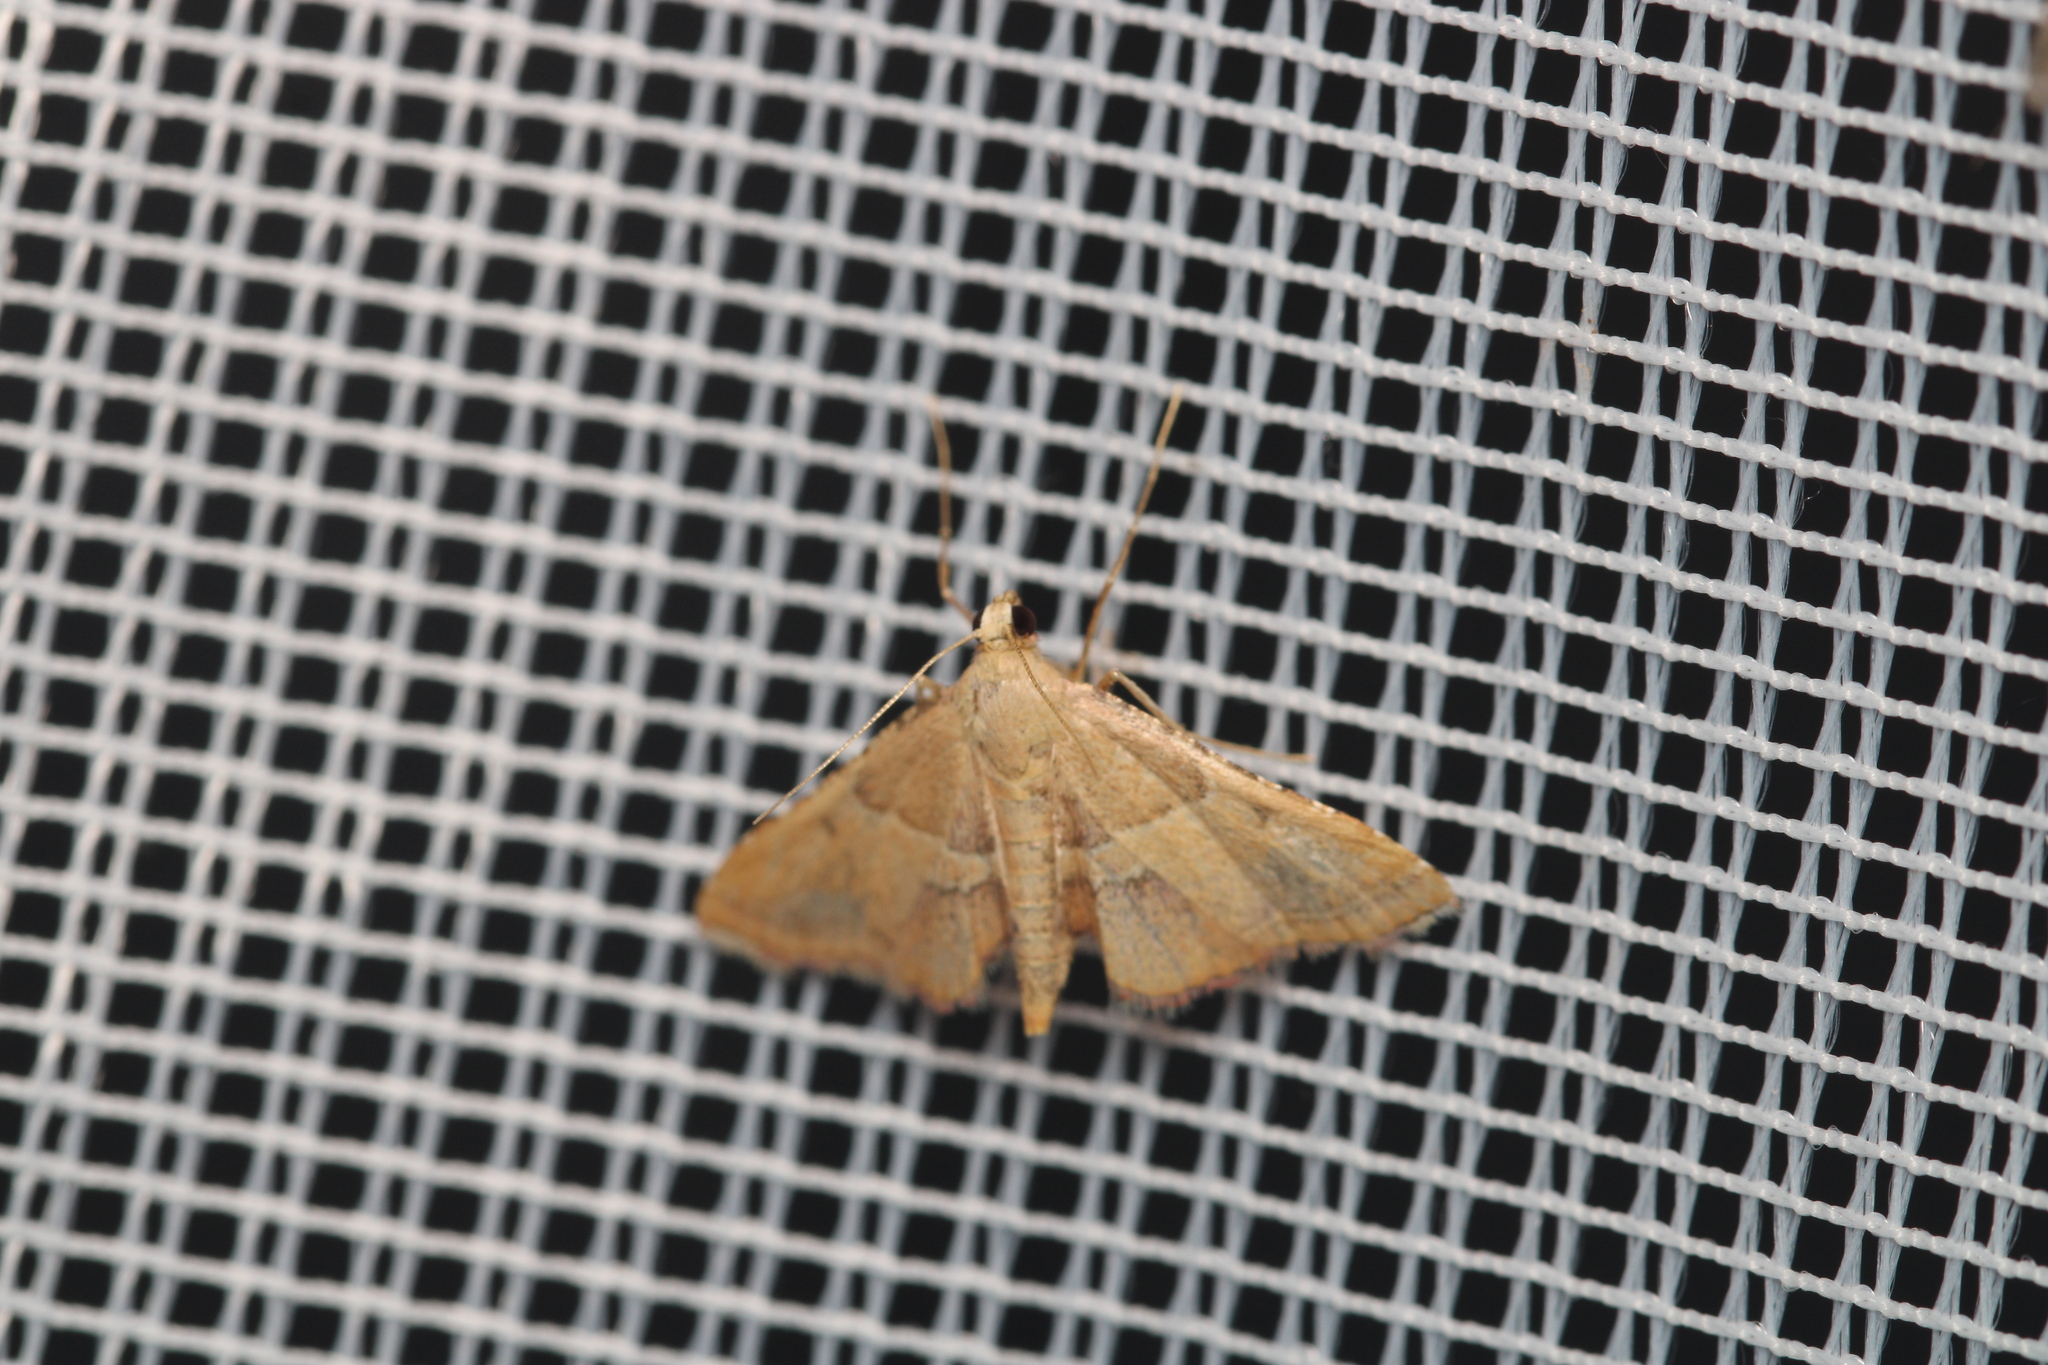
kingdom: Animalia
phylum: Arthropoda
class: Insecta
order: Lepidoptera
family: Pyralidae
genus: Endotricha
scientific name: Endotricha flammealis
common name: Rosy tabby
